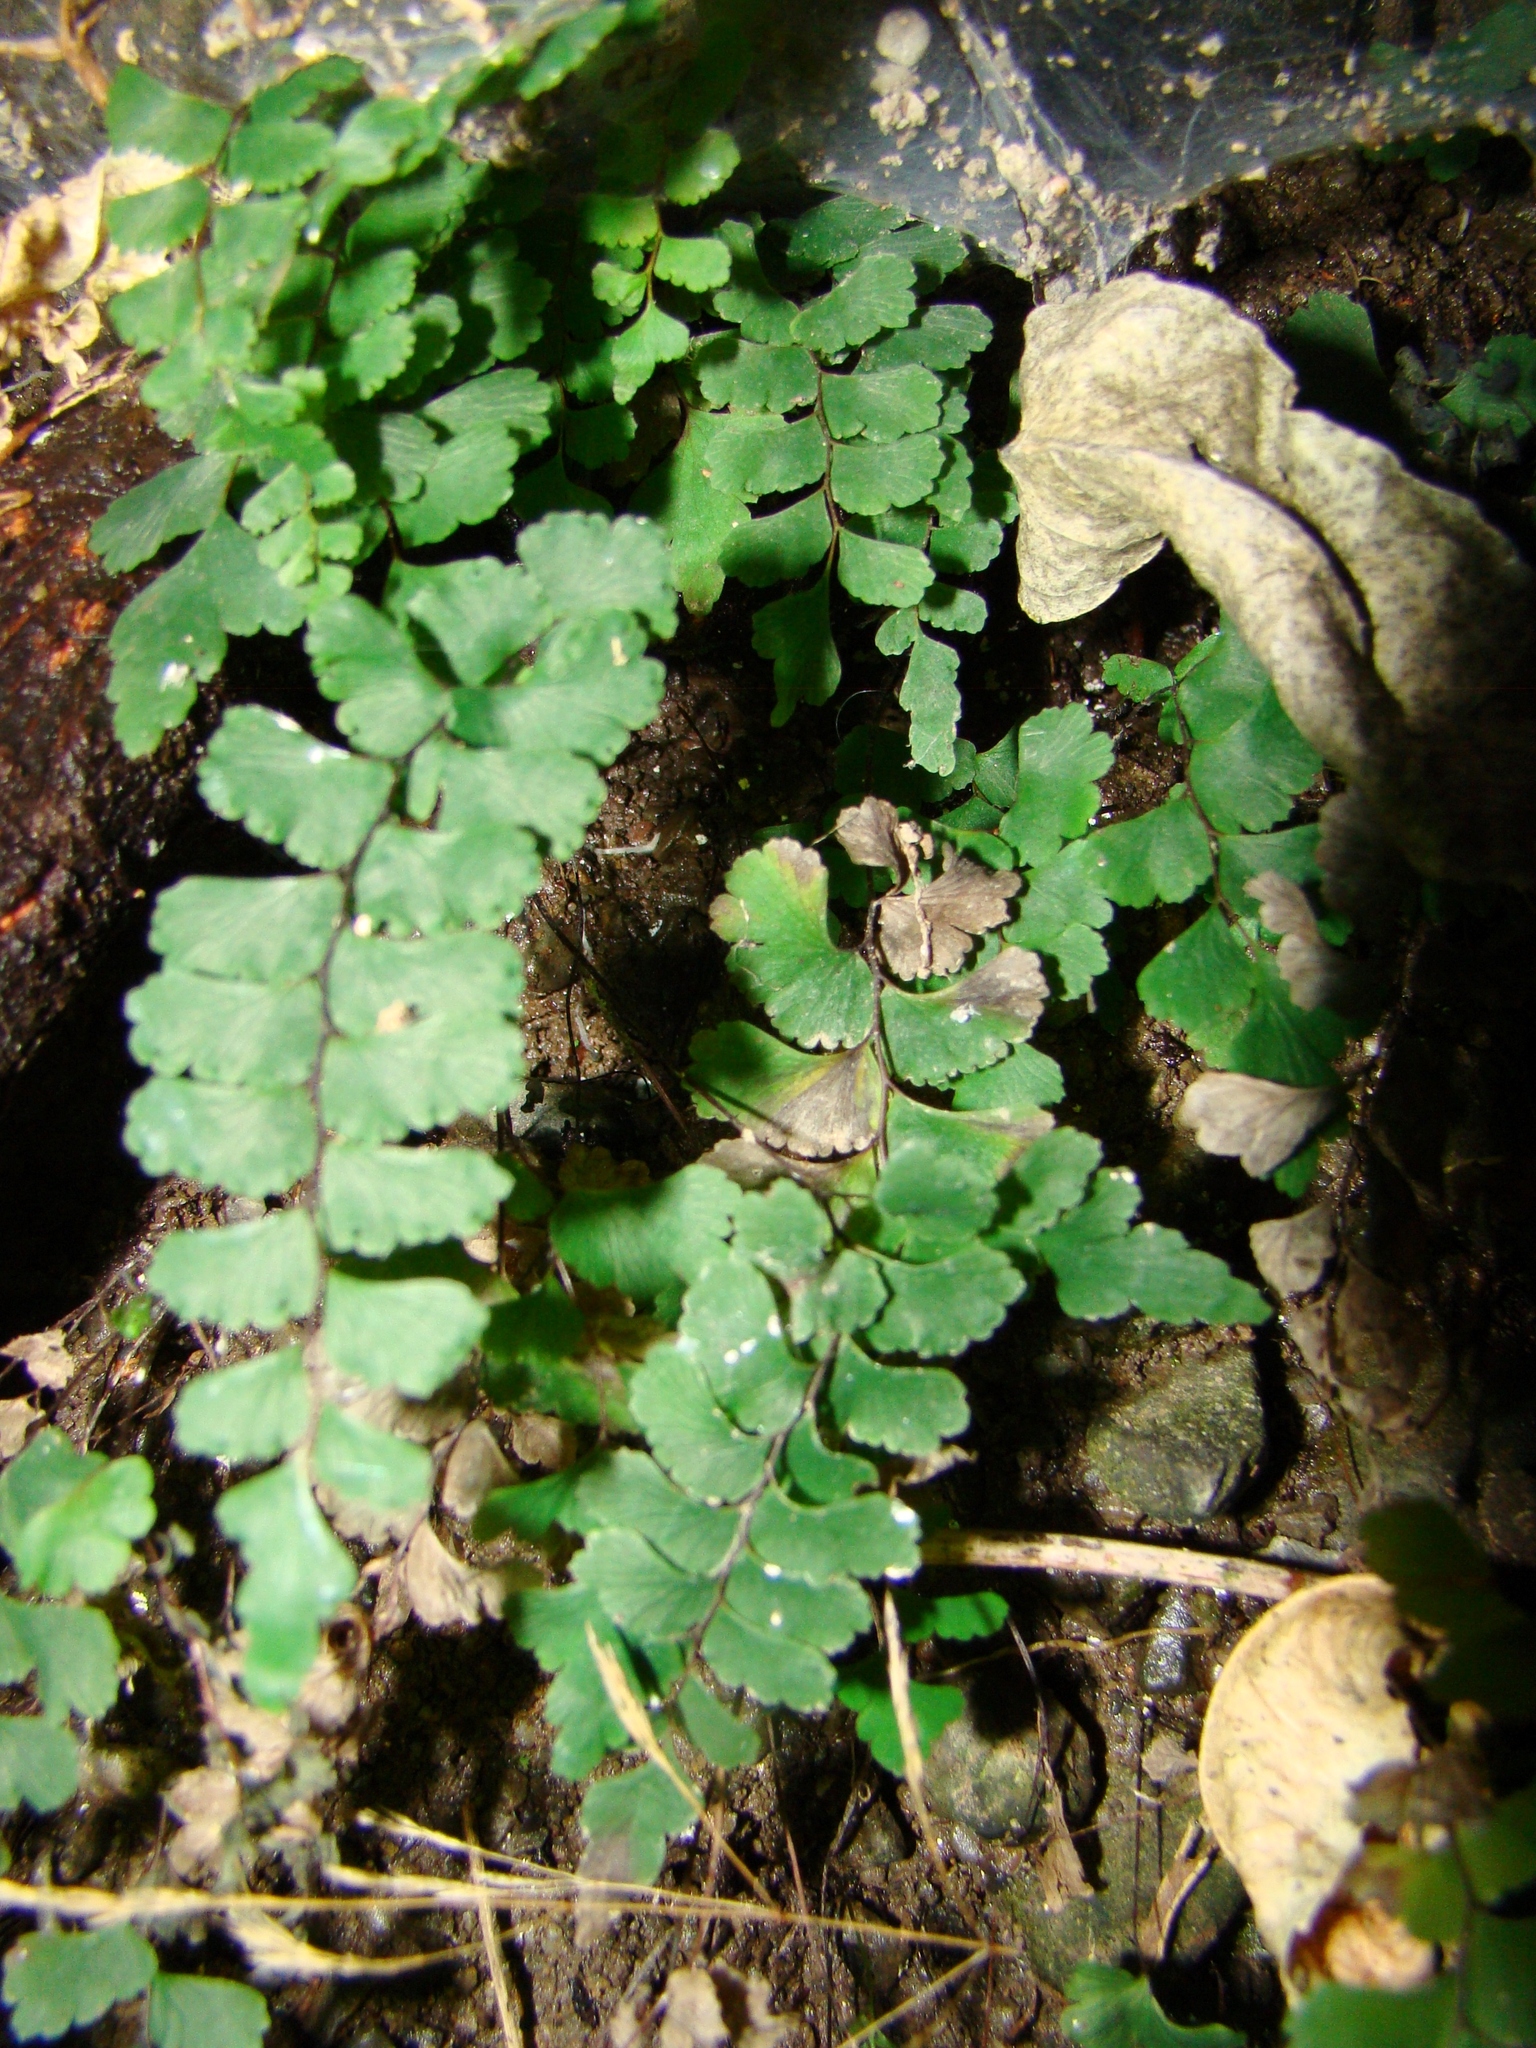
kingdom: Plantae
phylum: Tracheophyta
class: Polypodiopsida
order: Polypodiales
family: Pteridaceae
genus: Adiantum
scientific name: Adiantum diaphanum
